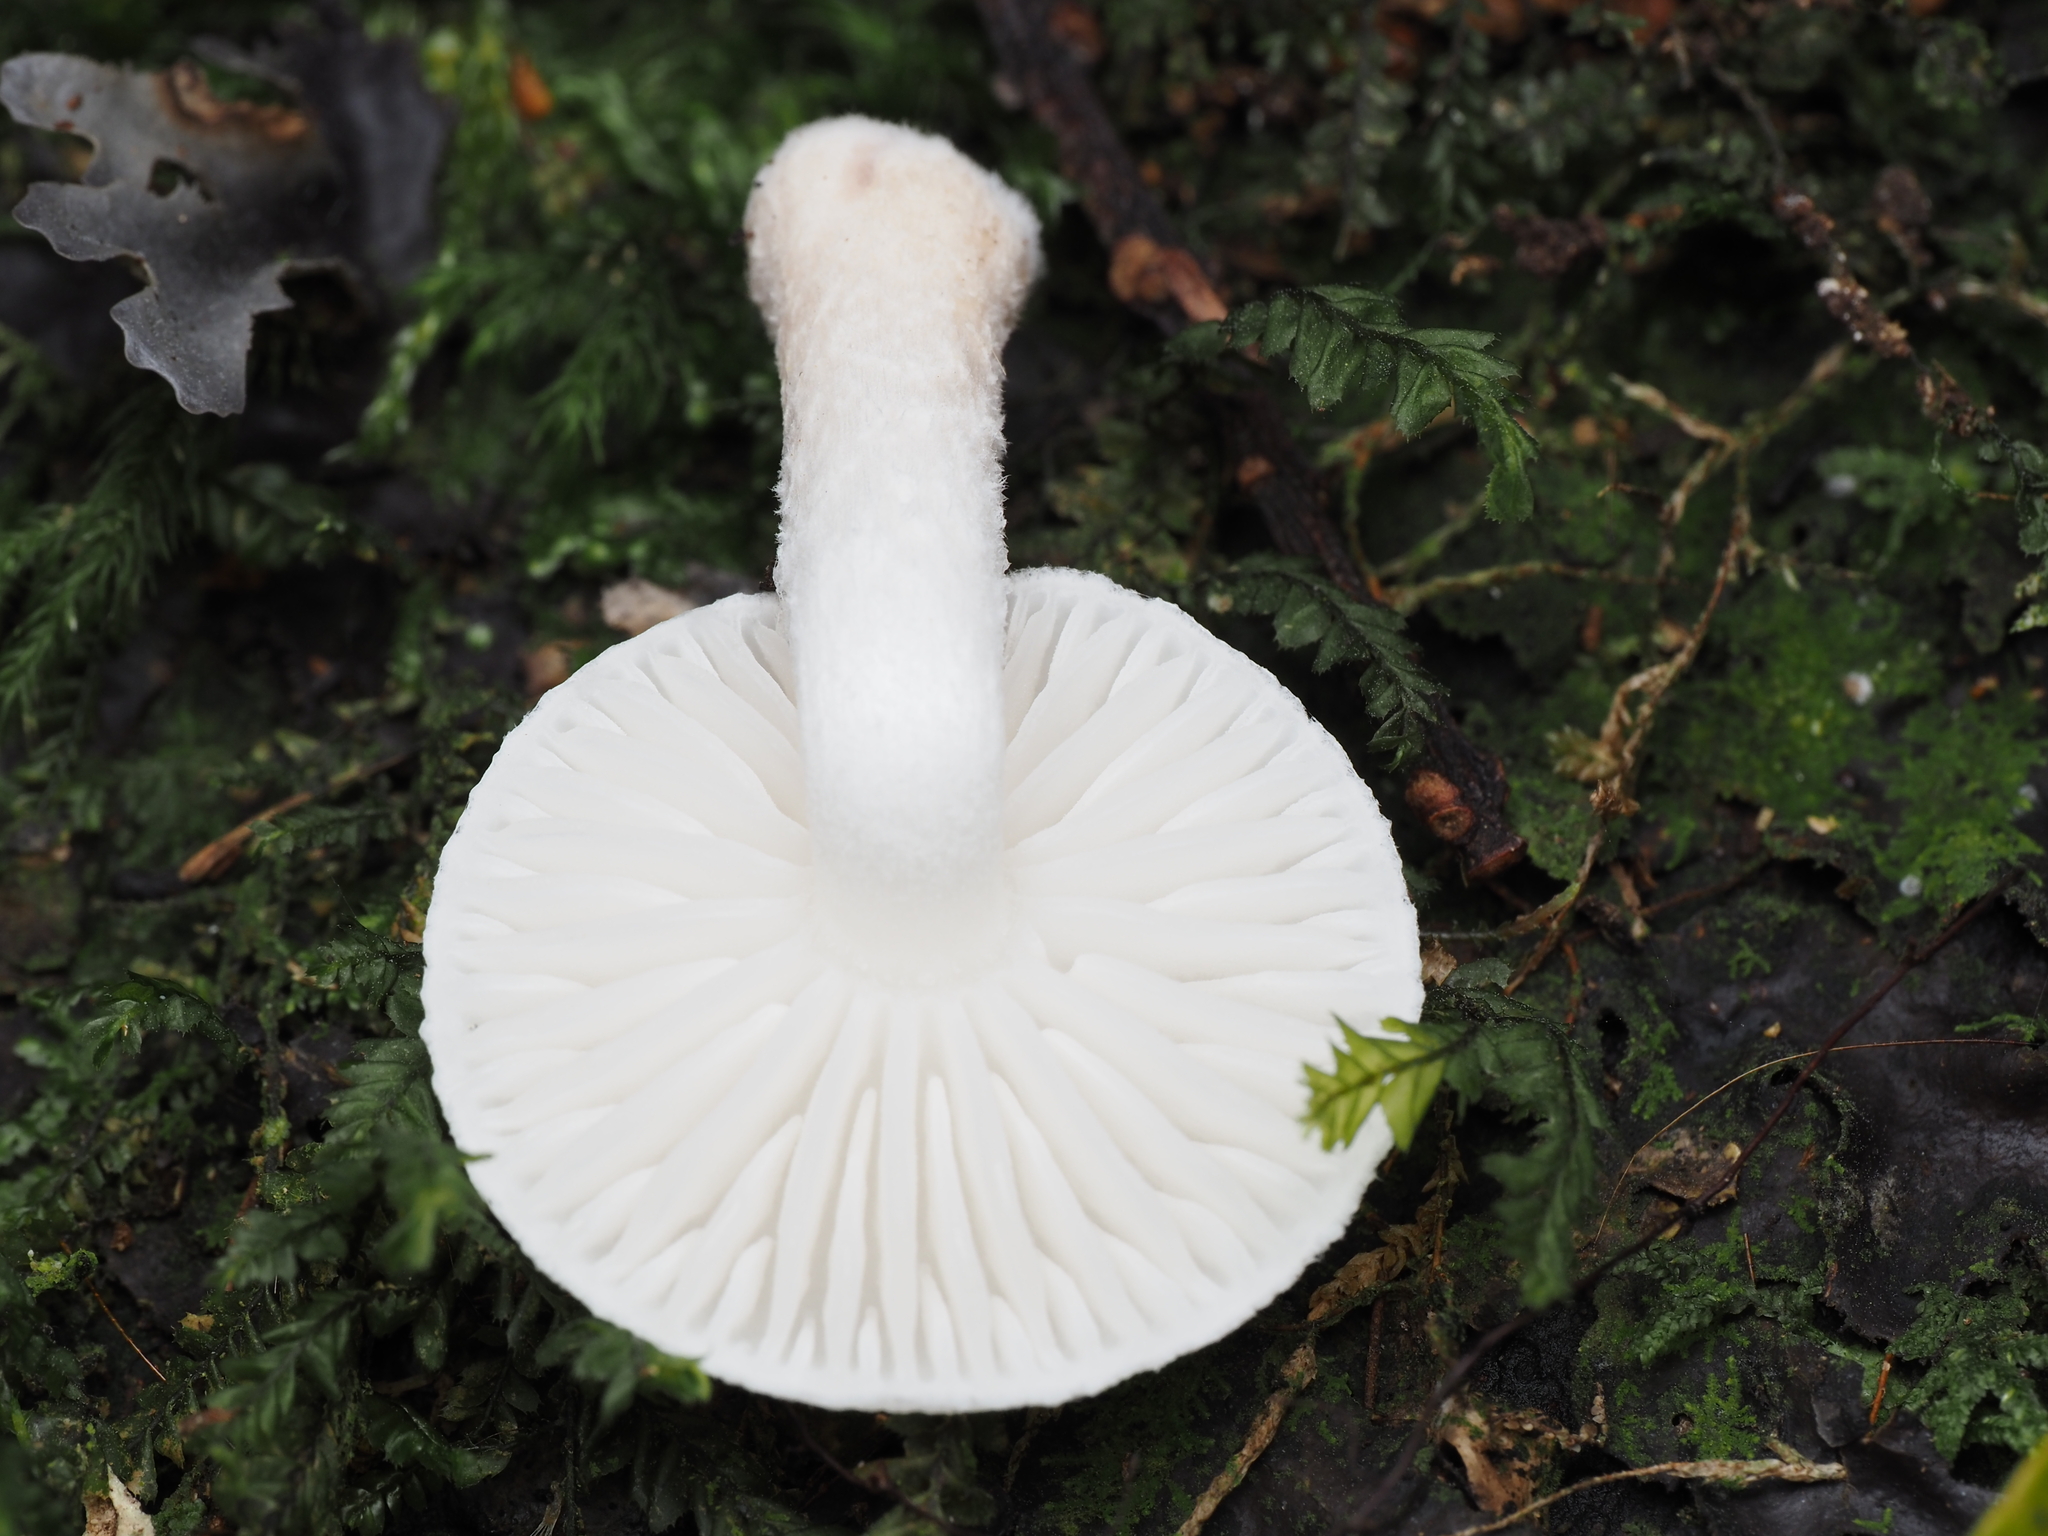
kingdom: Fungi
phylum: Basidiomycota
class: Agaricomycetes
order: Agaricales
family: Physalacriaceae
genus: Oudemansiella
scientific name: Oudemansiella australis
